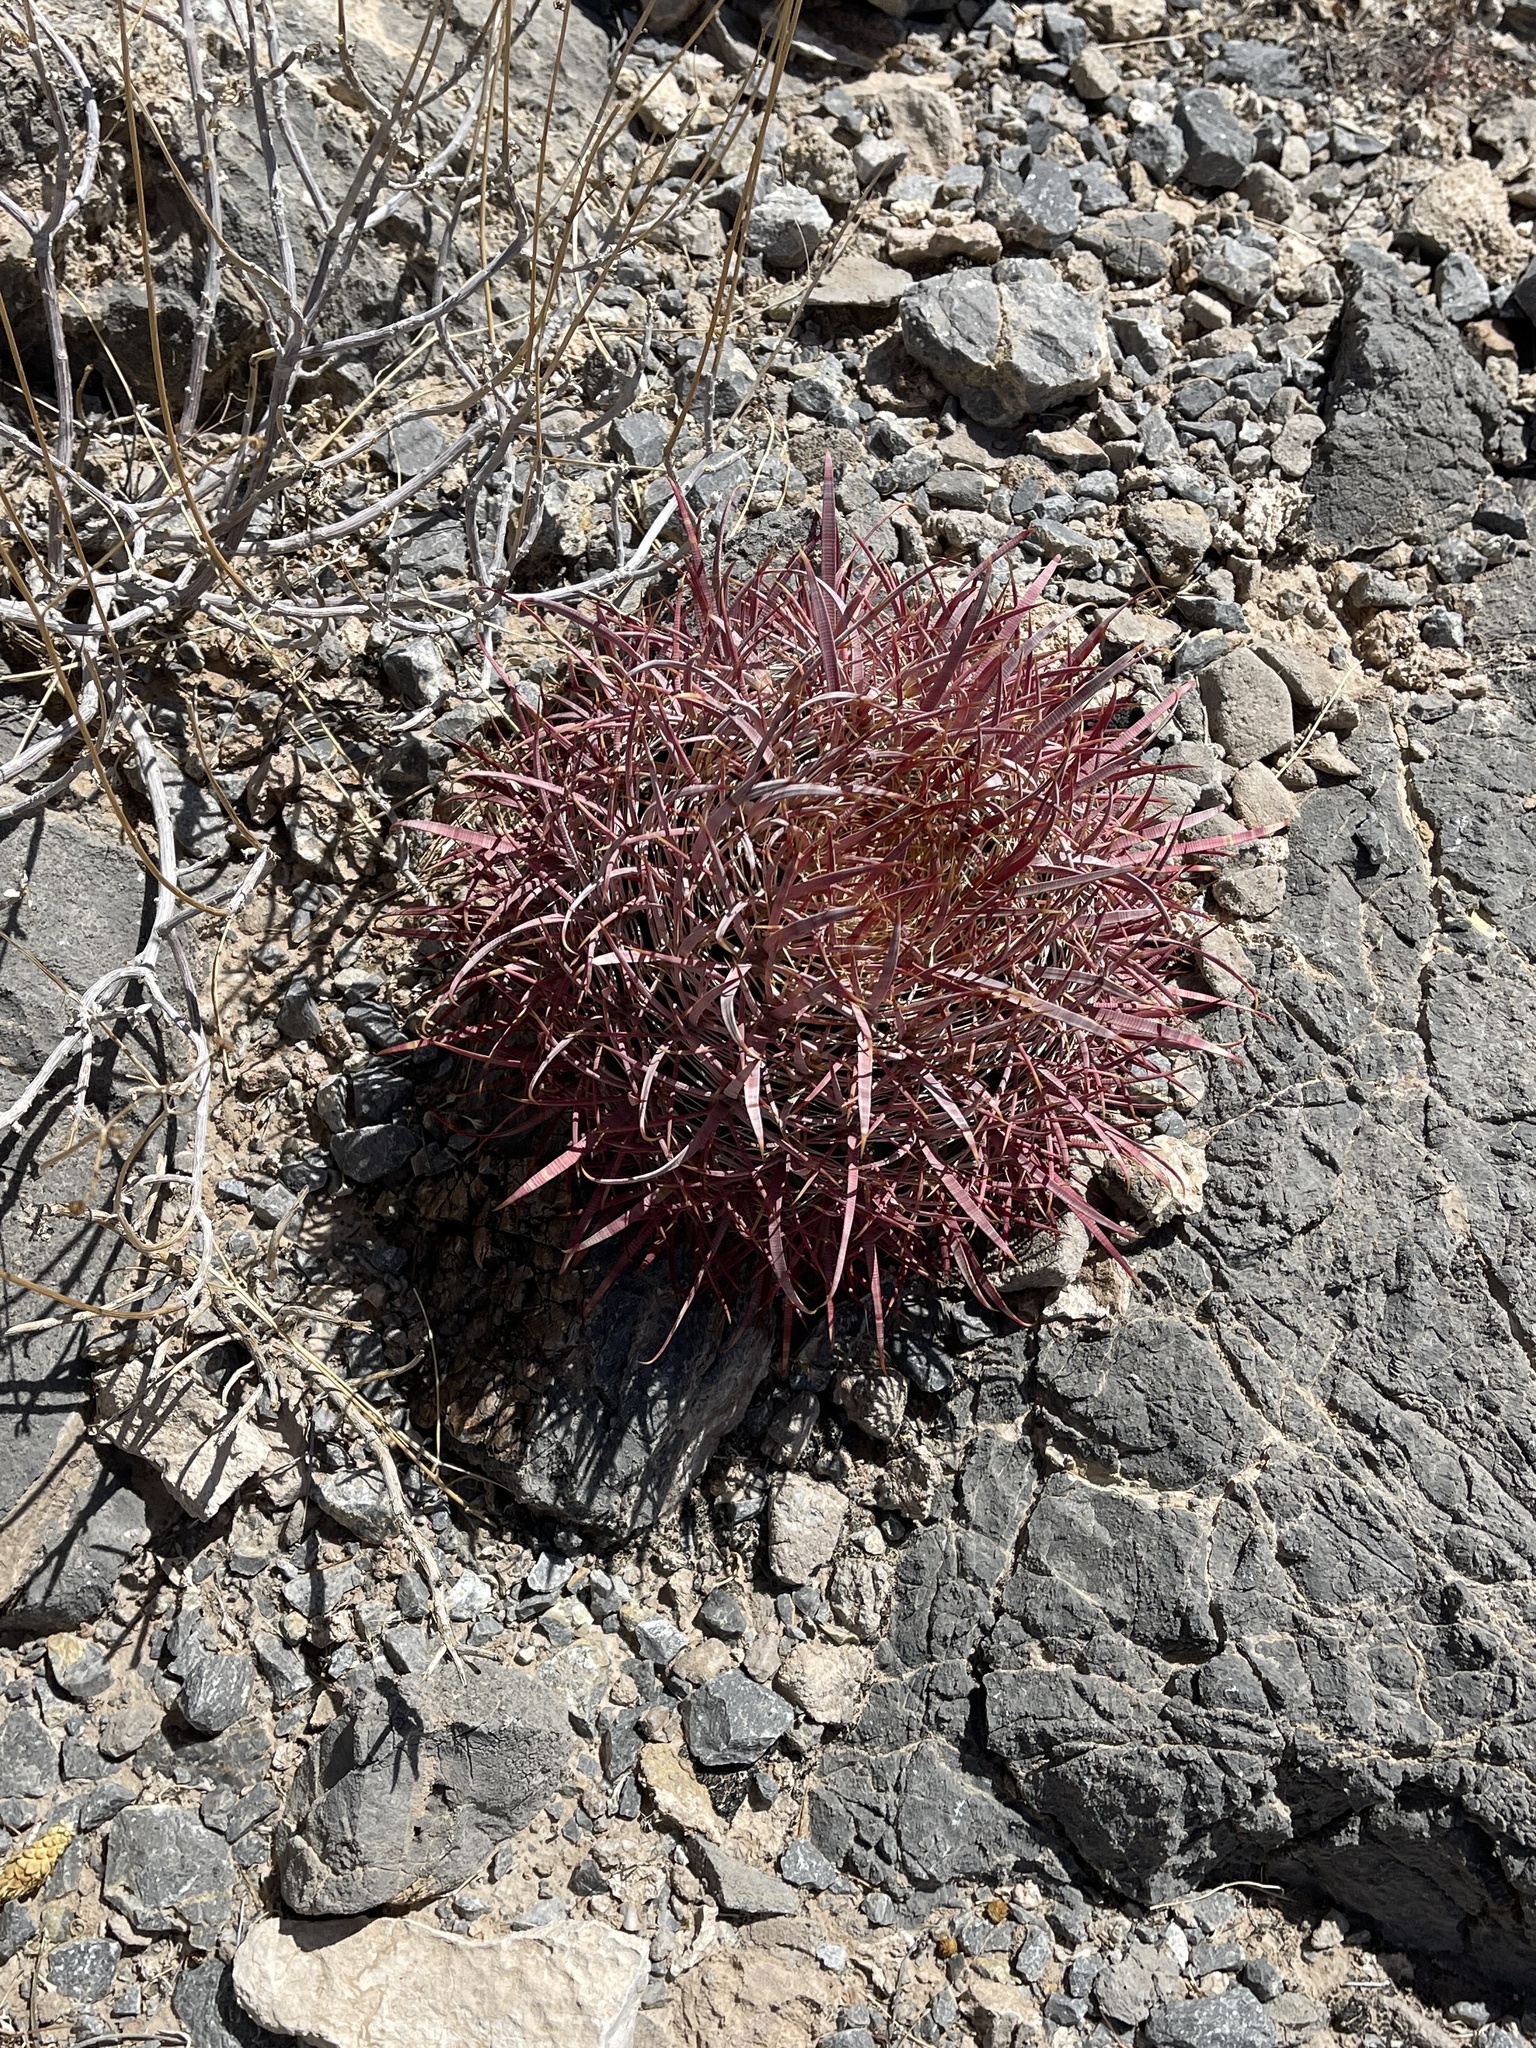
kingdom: Plantae
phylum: Tracheophyta
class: Magnoliopsida
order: Caryophyllales
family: Cactaceae
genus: Ferocactus
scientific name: Ferocactus cylindraceus
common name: California barrel cactus
